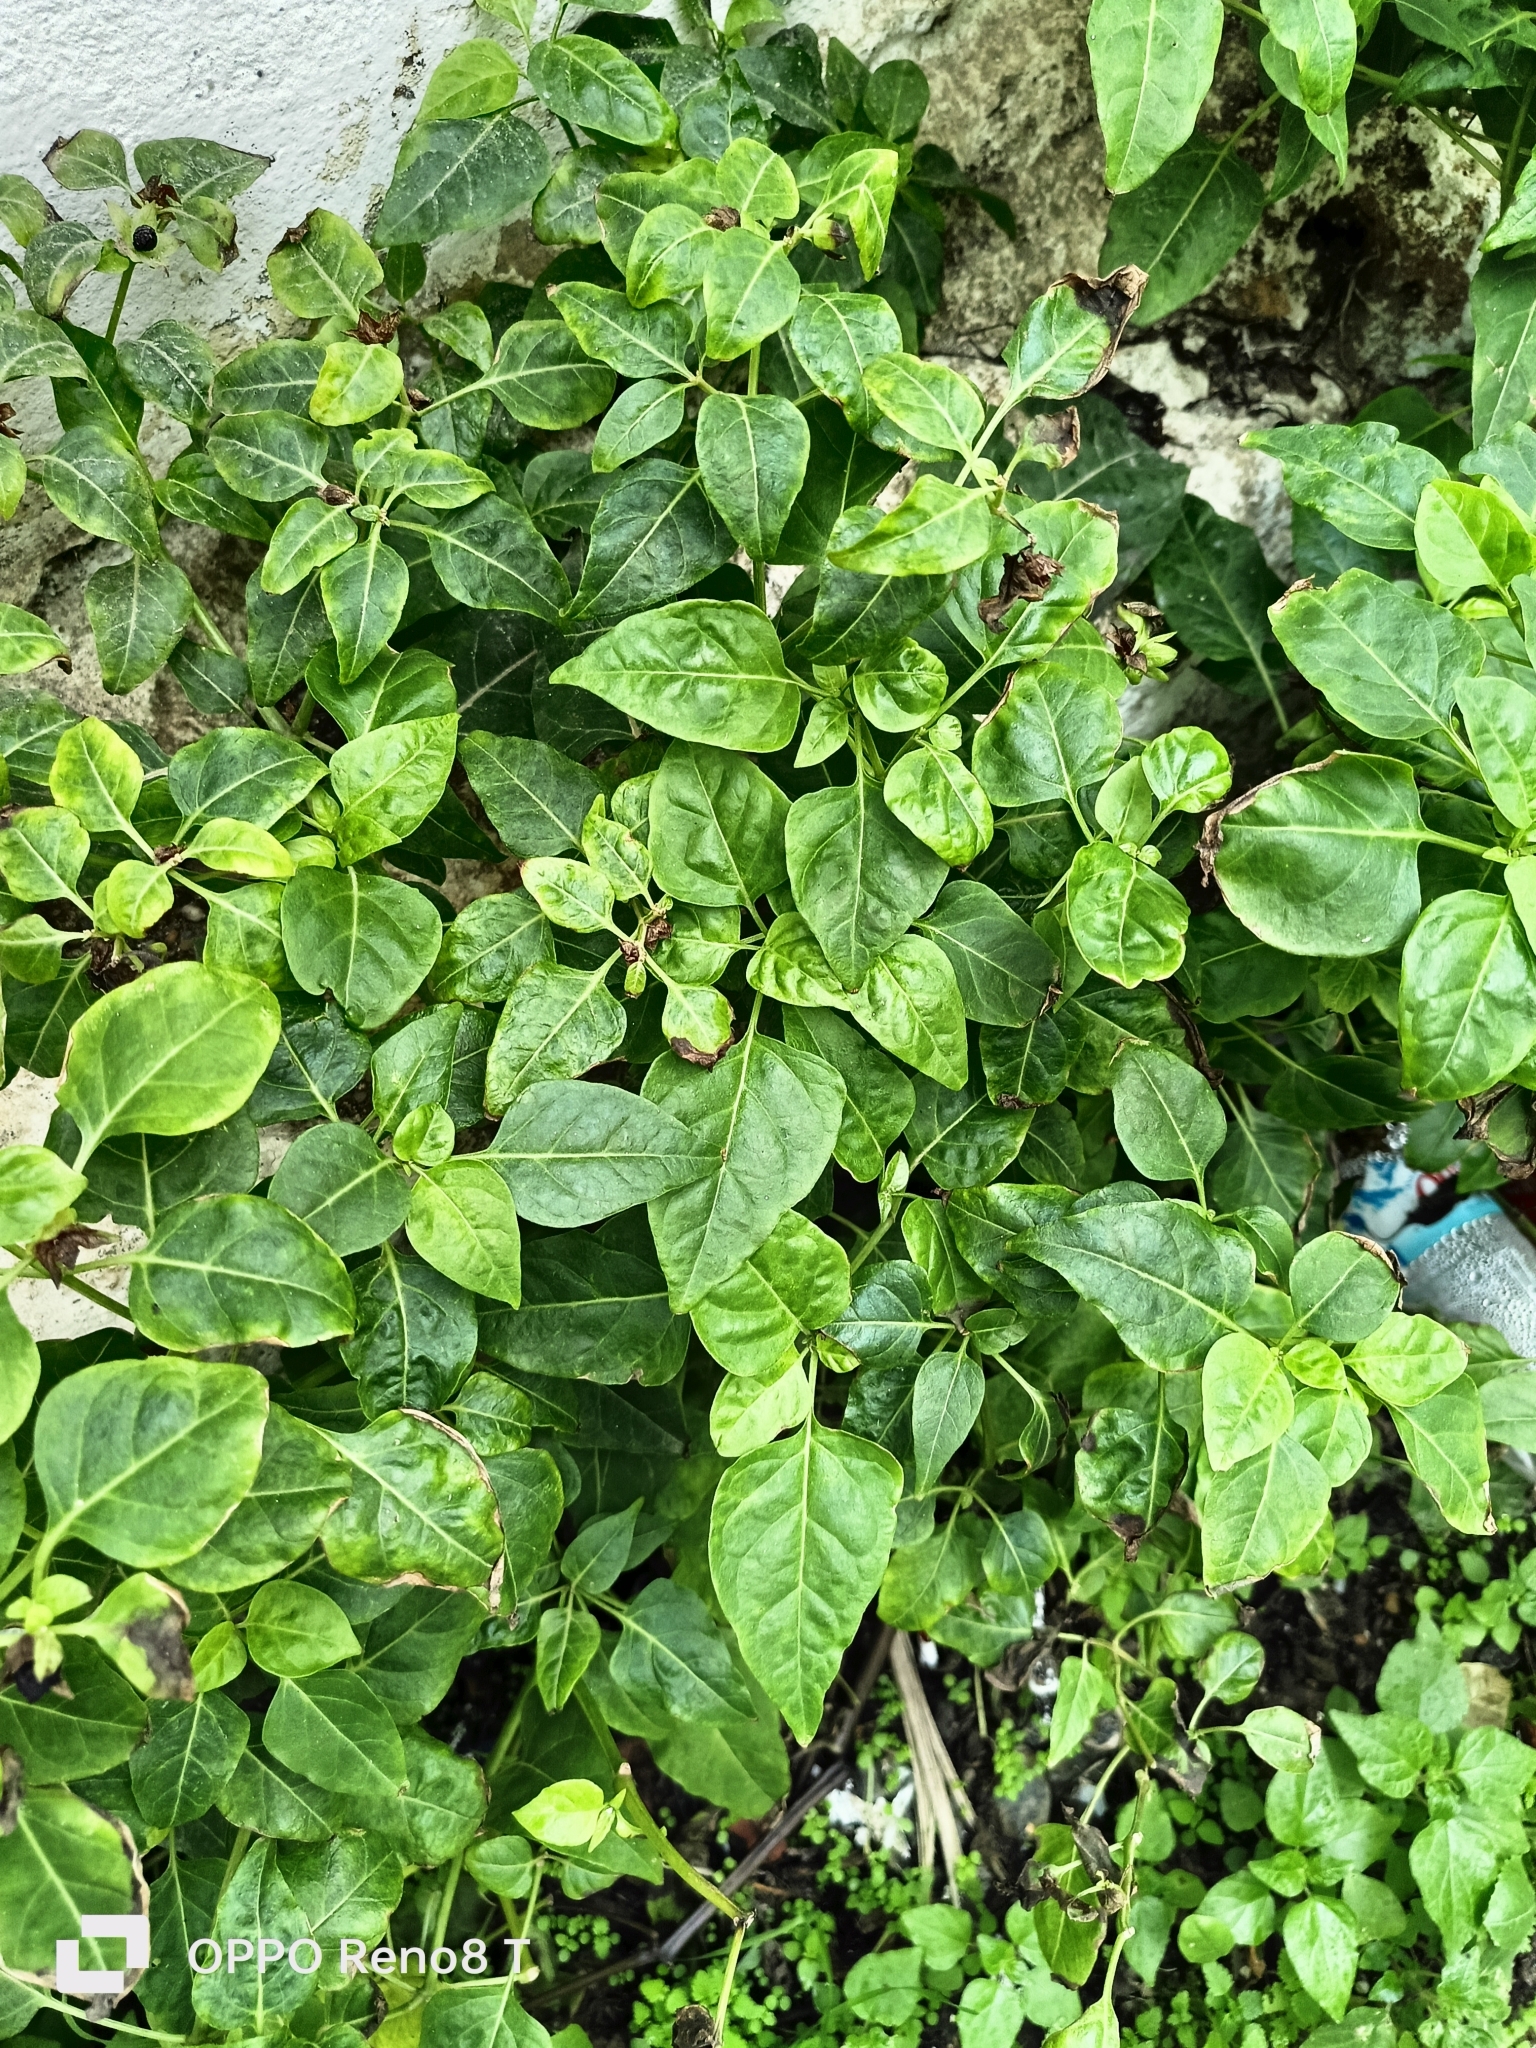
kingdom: Plantae
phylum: Tracheophyta
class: Magnoliopsida
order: Caryophyllales
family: Nyctaginaceae
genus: Mirabilis
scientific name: Mirabilis jalapa
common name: Marvel-of-peru
